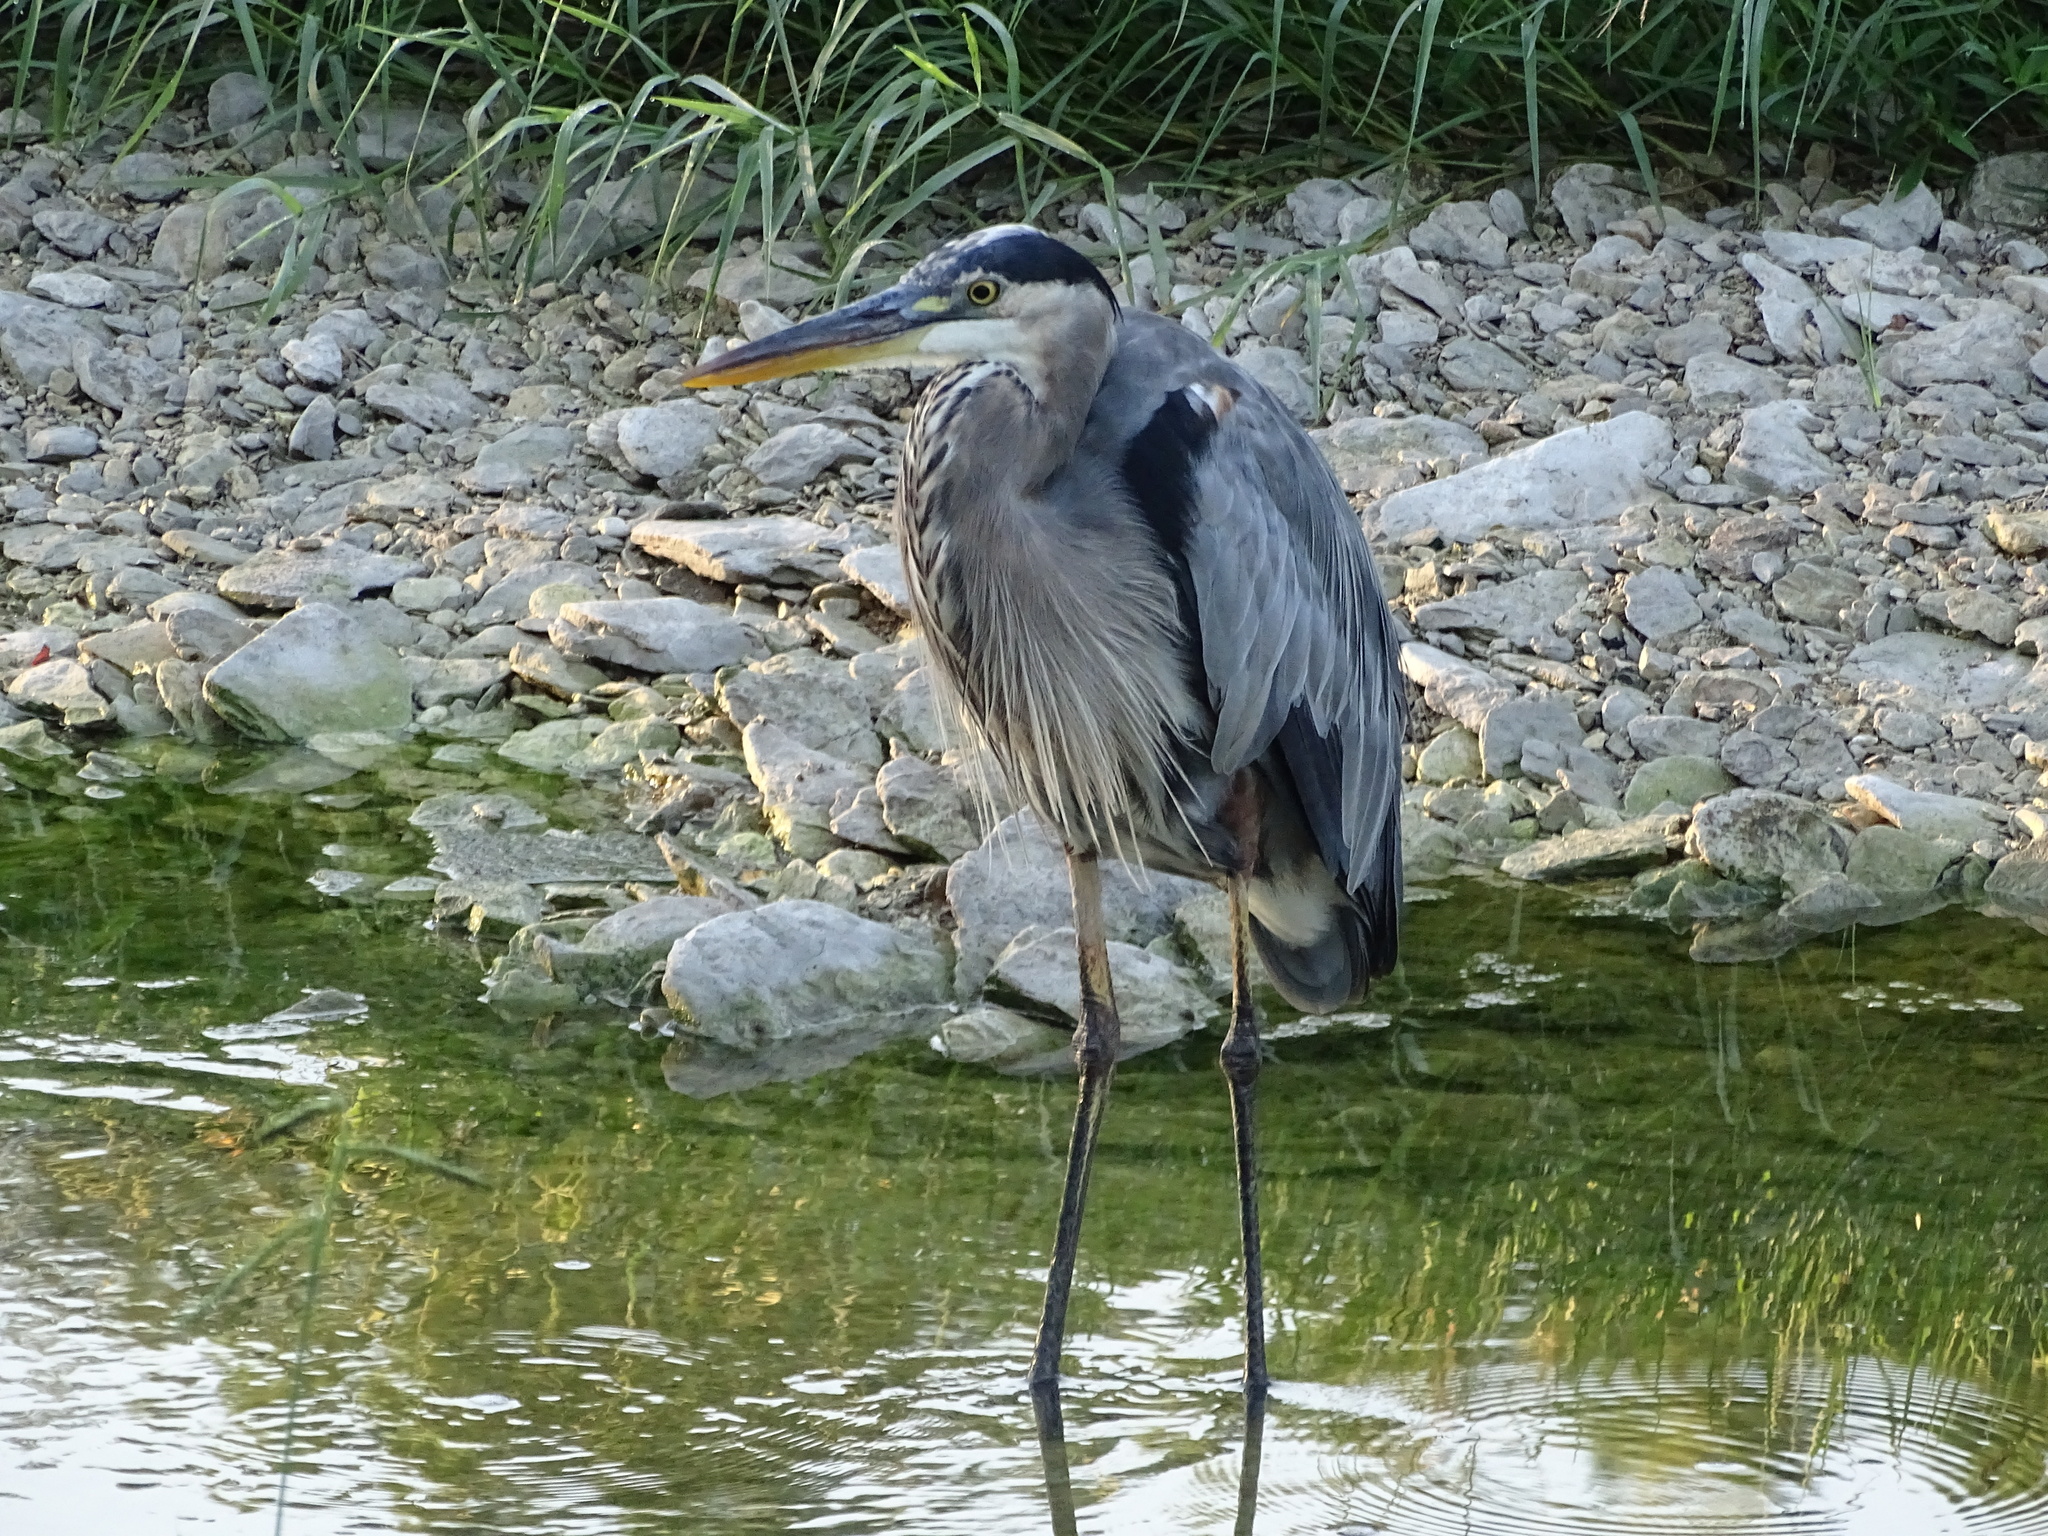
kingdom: Animalia
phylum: Chordata
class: Aves
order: Pelecaniformes
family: Ardeidae
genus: Ardea
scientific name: Ardea herodias
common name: Great blue heron
